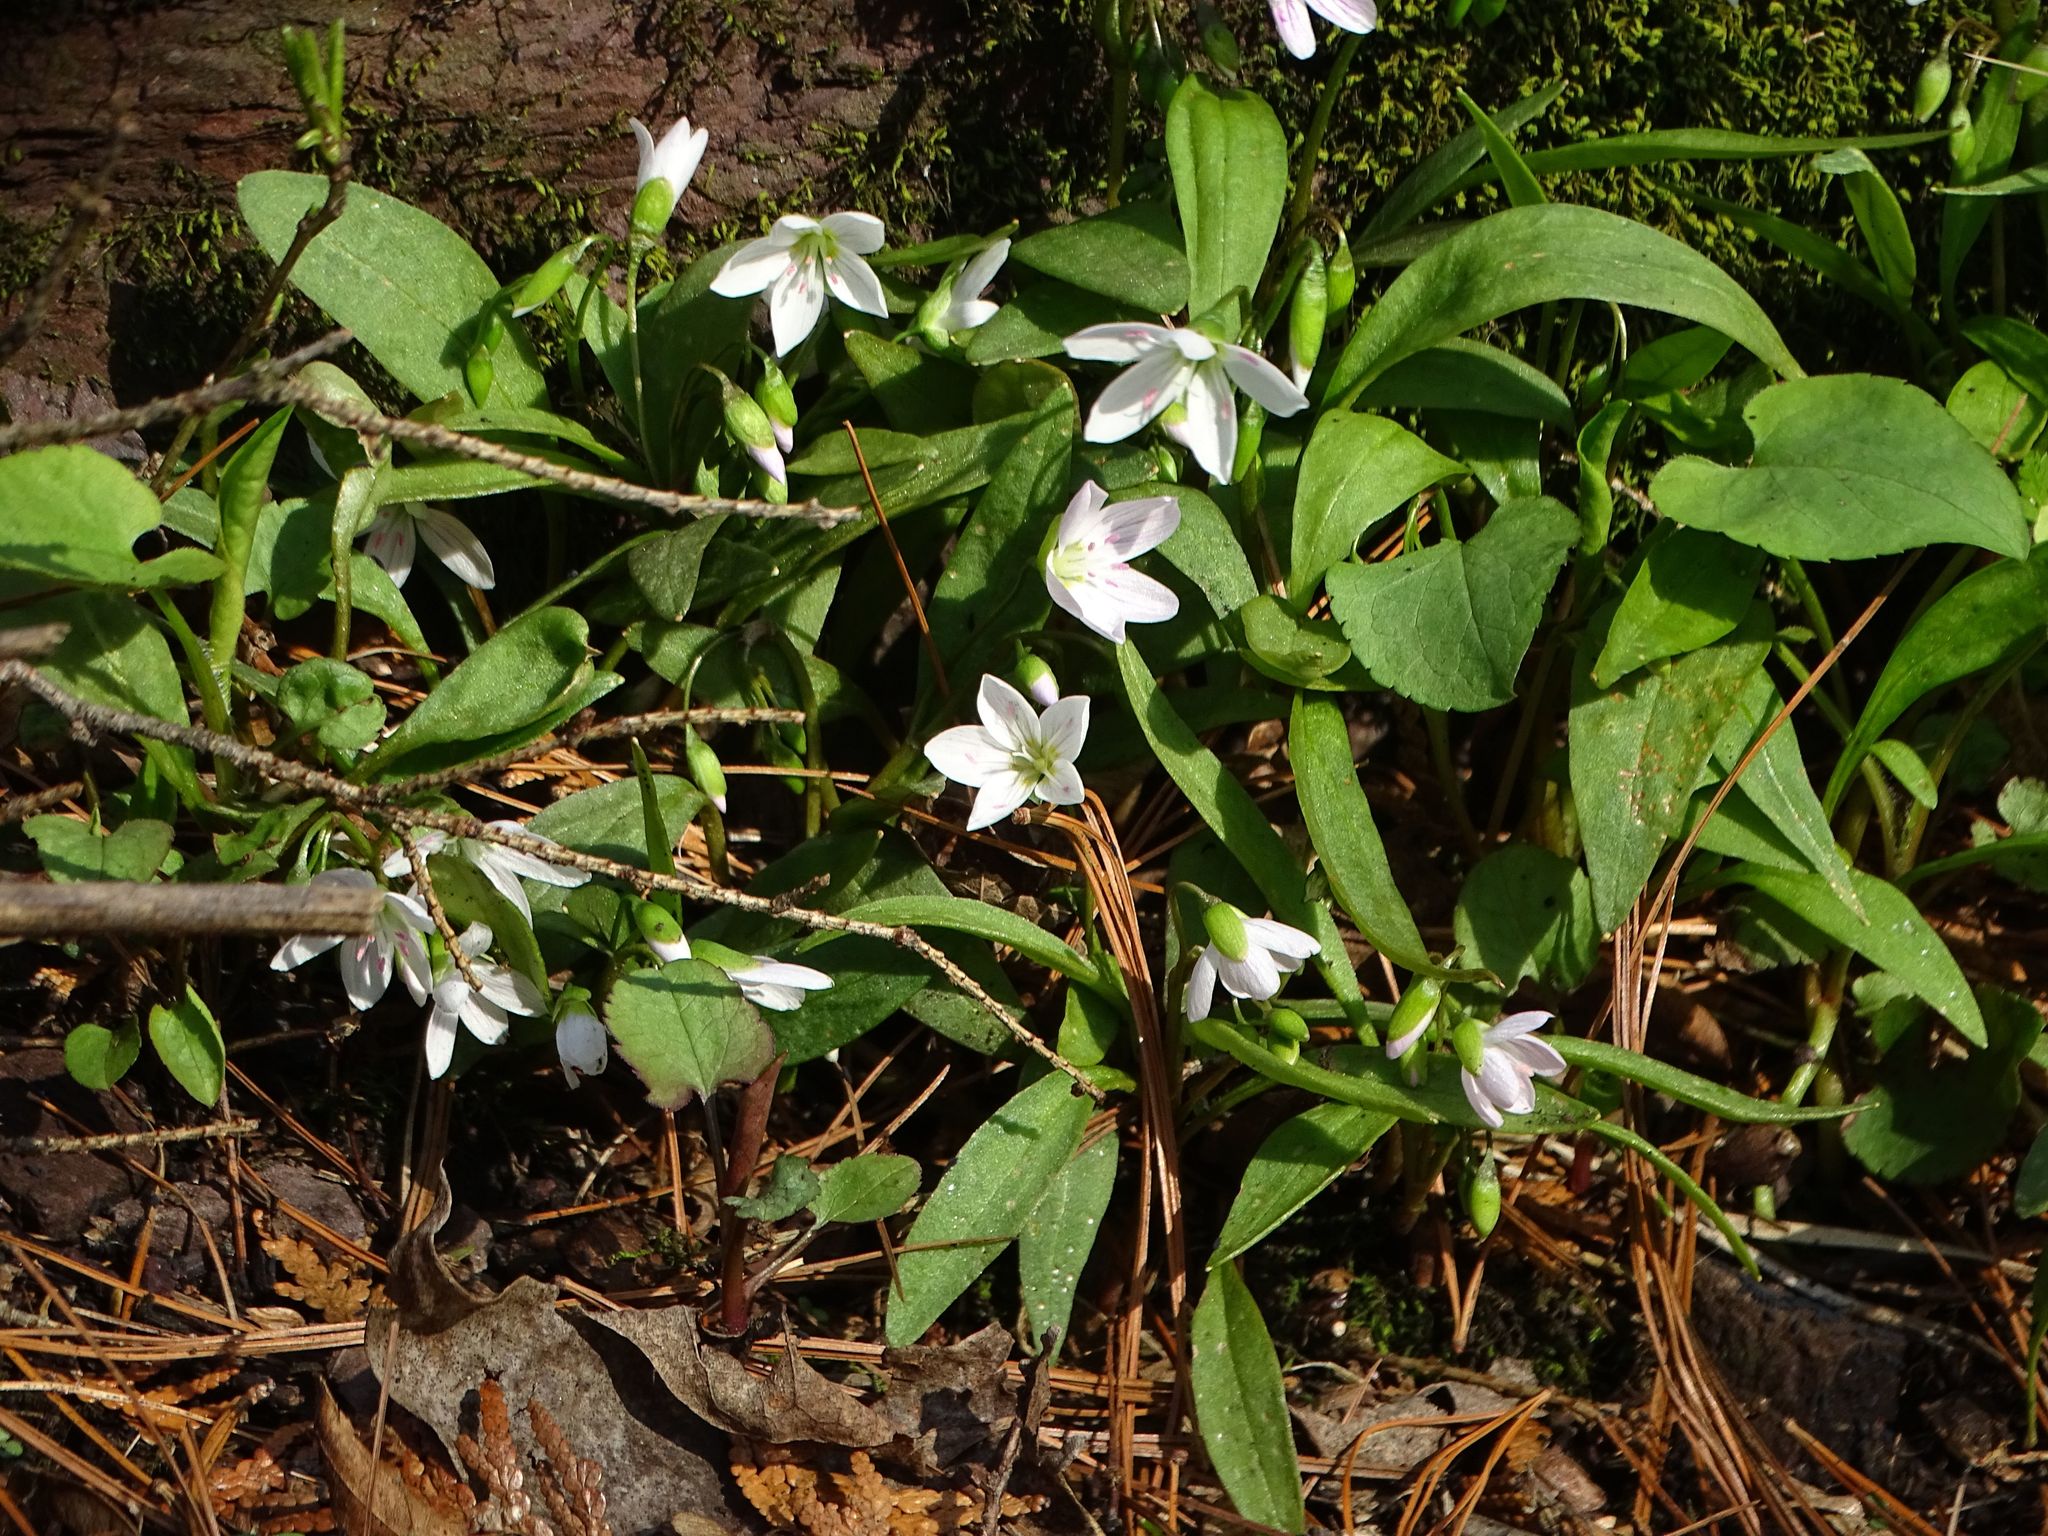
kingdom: Plantae
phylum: Tracheophyta
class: Magnoliopsida
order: Caryophyllales
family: Montiaceae
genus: Claytonia
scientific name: Claytonia caroliniana
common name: Carolina spring beauty
